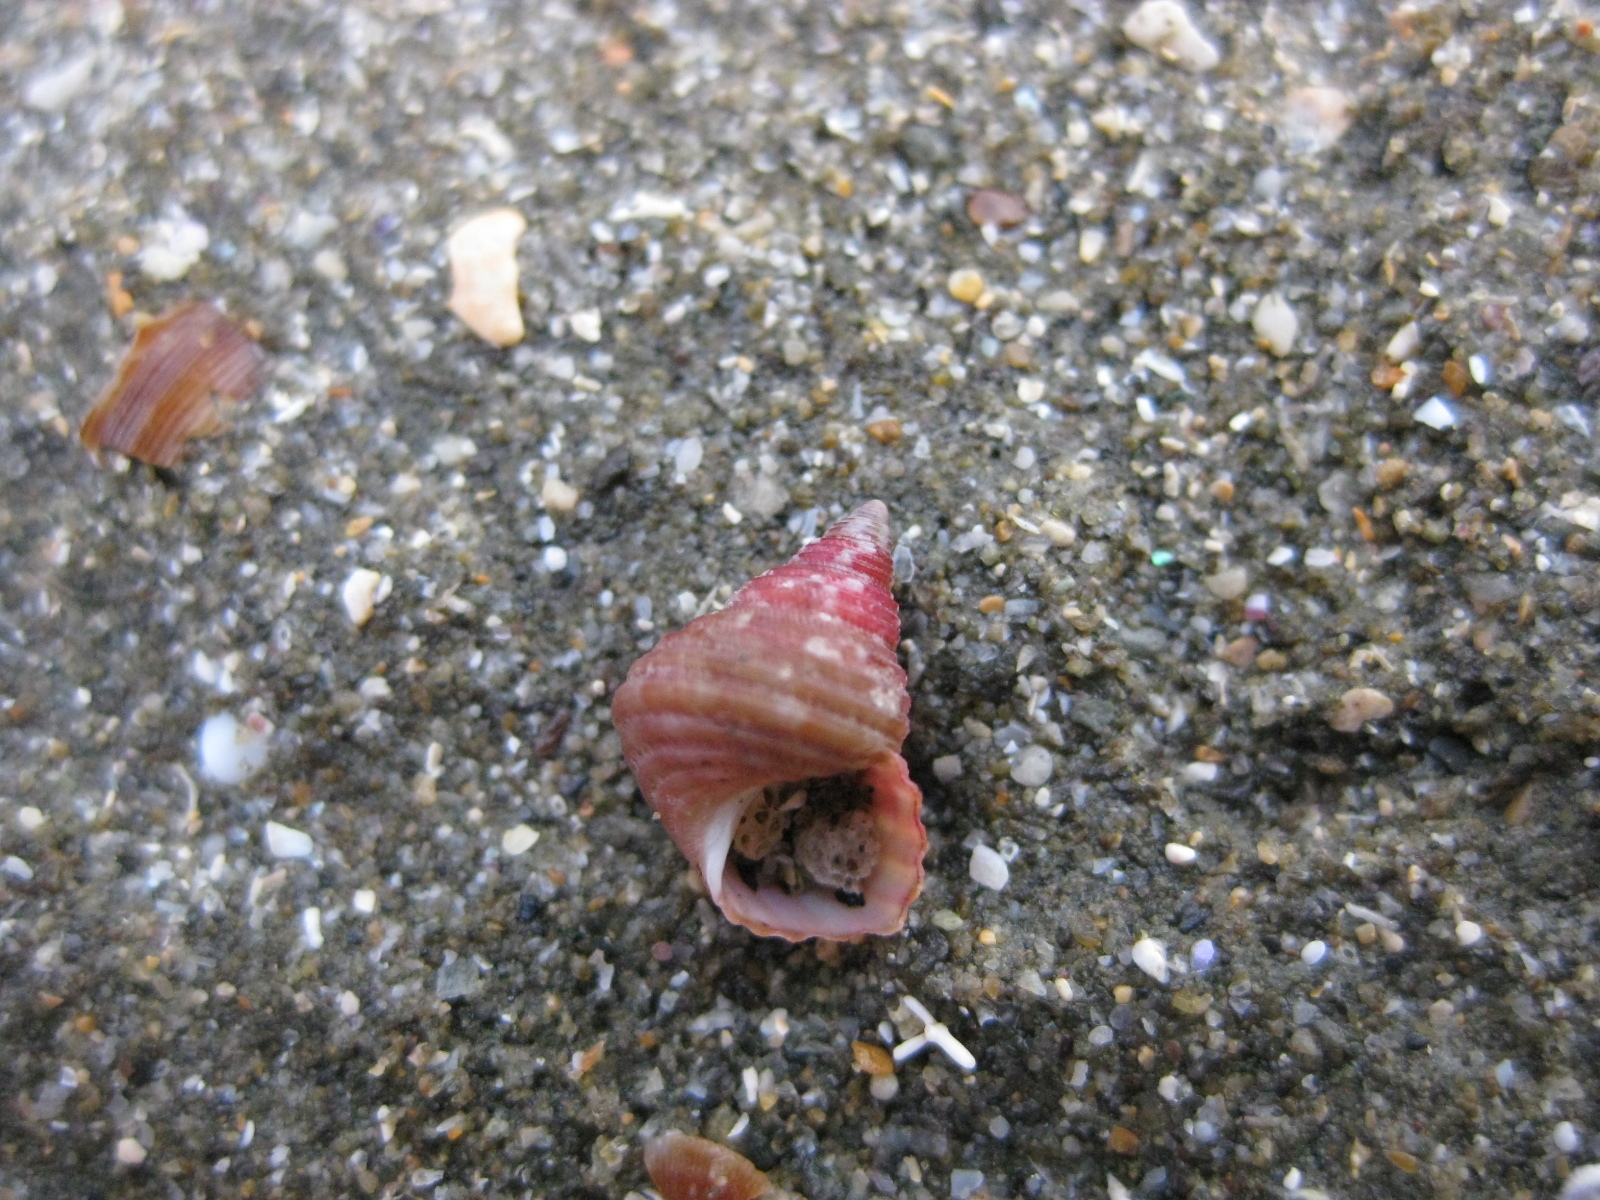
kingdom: Animalia
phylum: Mollusca
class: Gastropoda
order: Trochida
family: Trochidae
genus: Micrelenchus
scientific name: Micrelenchus purpureus
